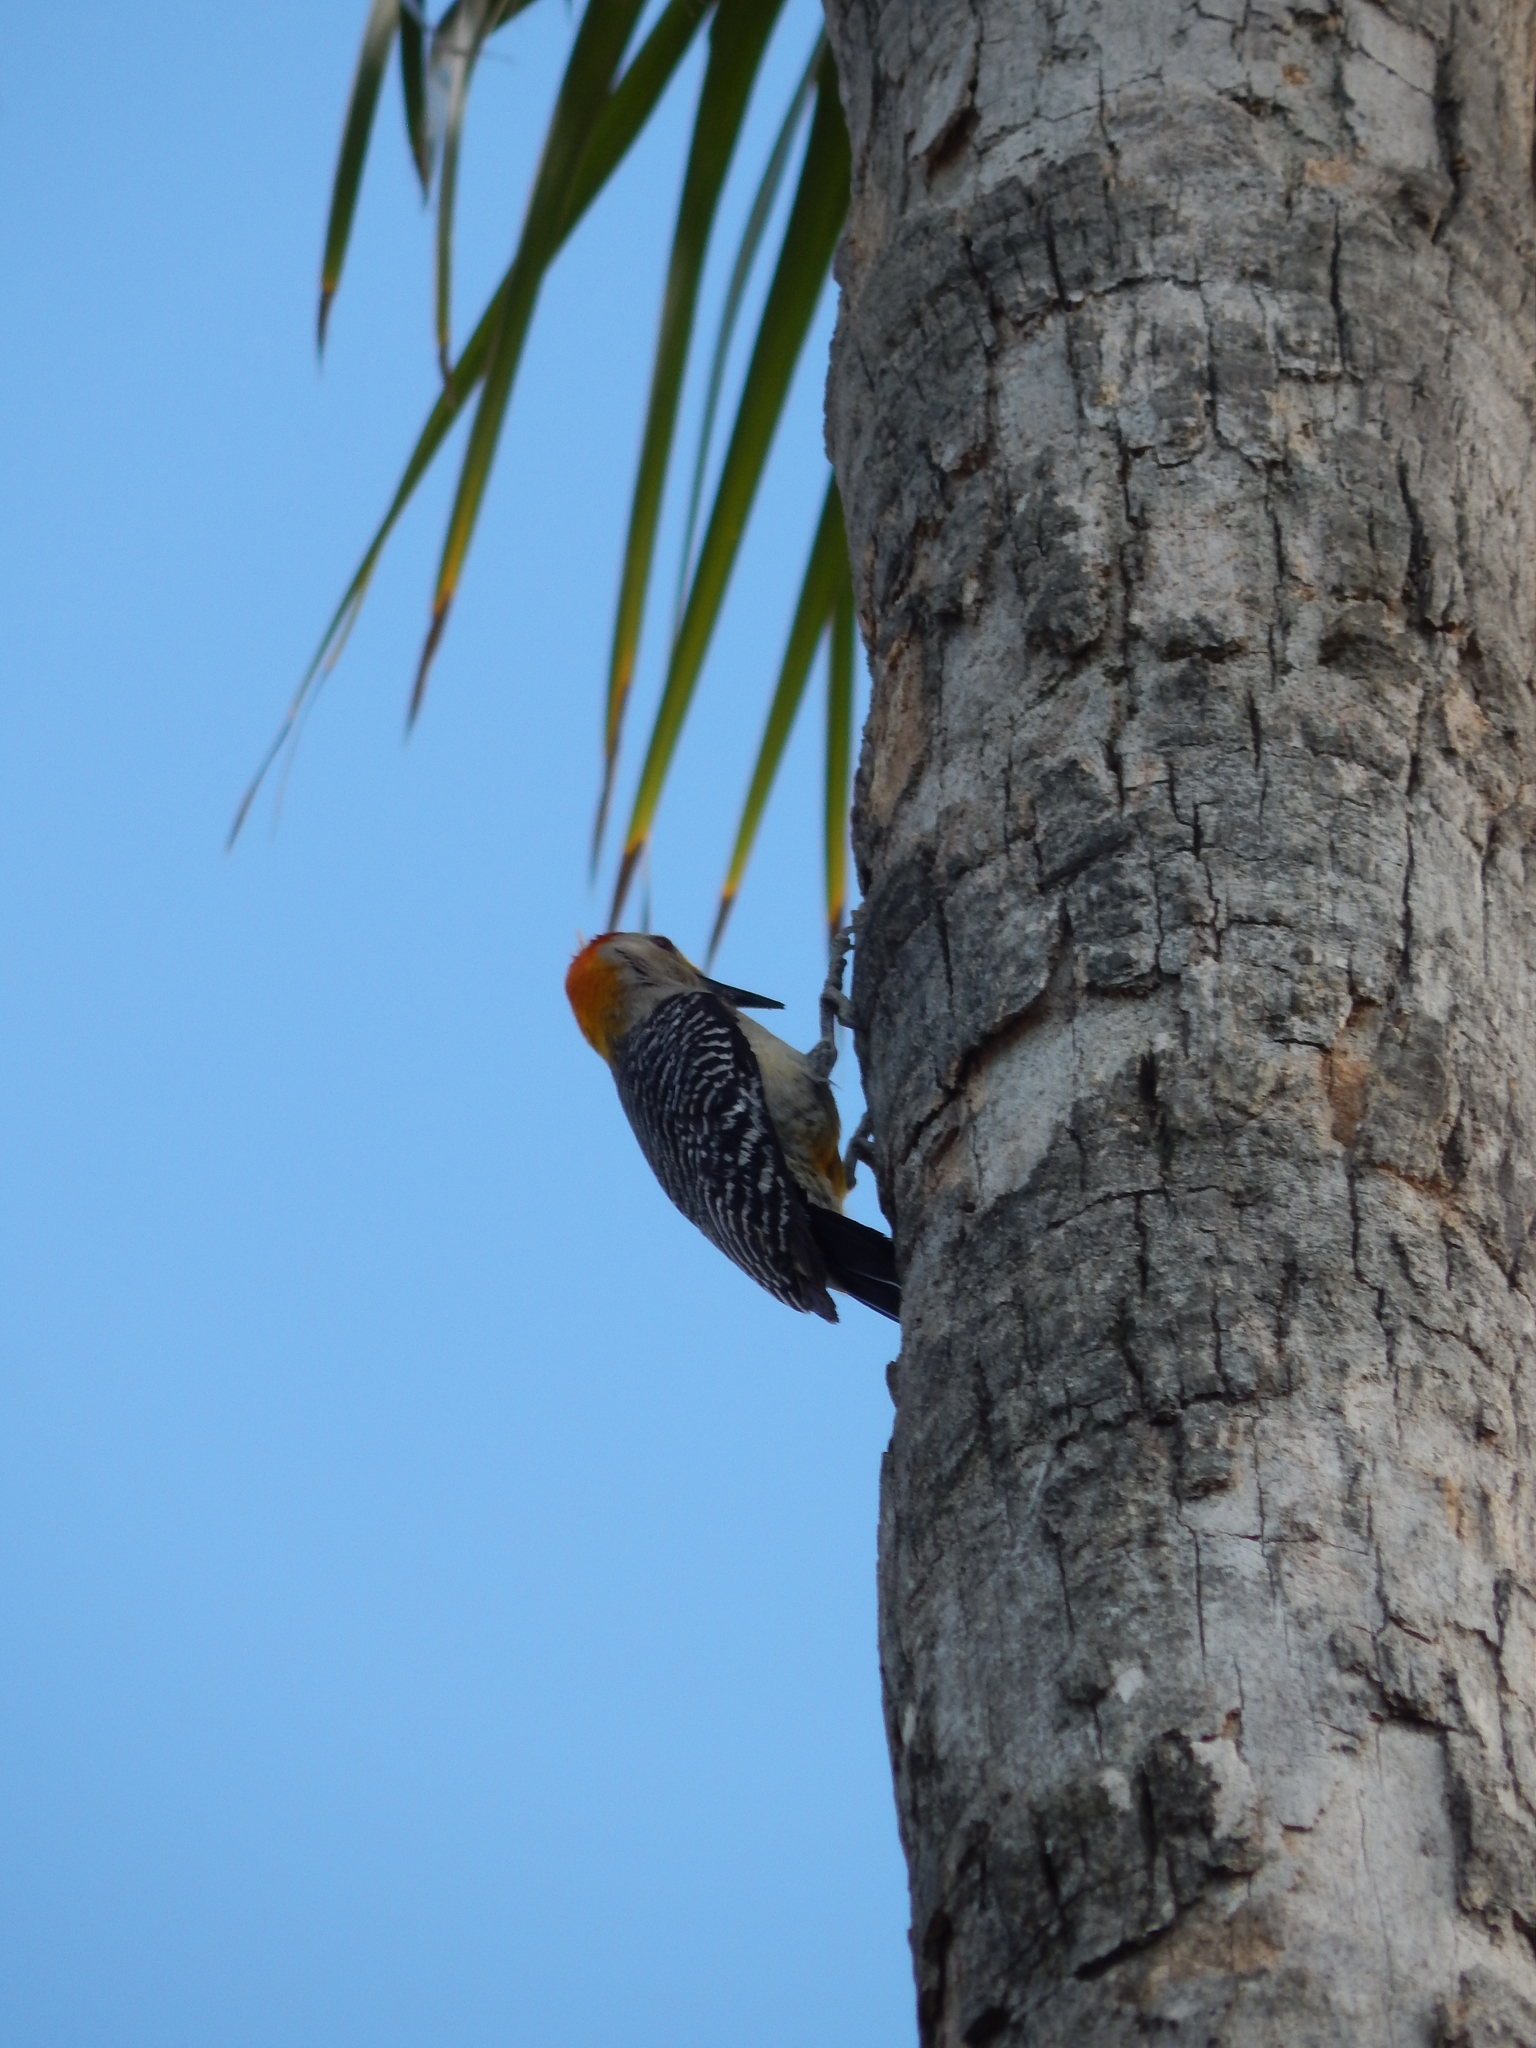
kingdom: Animalia
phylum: Chordata
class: Aves
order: Piciformes
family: Picidae
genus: Melanerpes
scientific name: Melanerpes aurifrons
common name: Golden-fronted woodpecker
